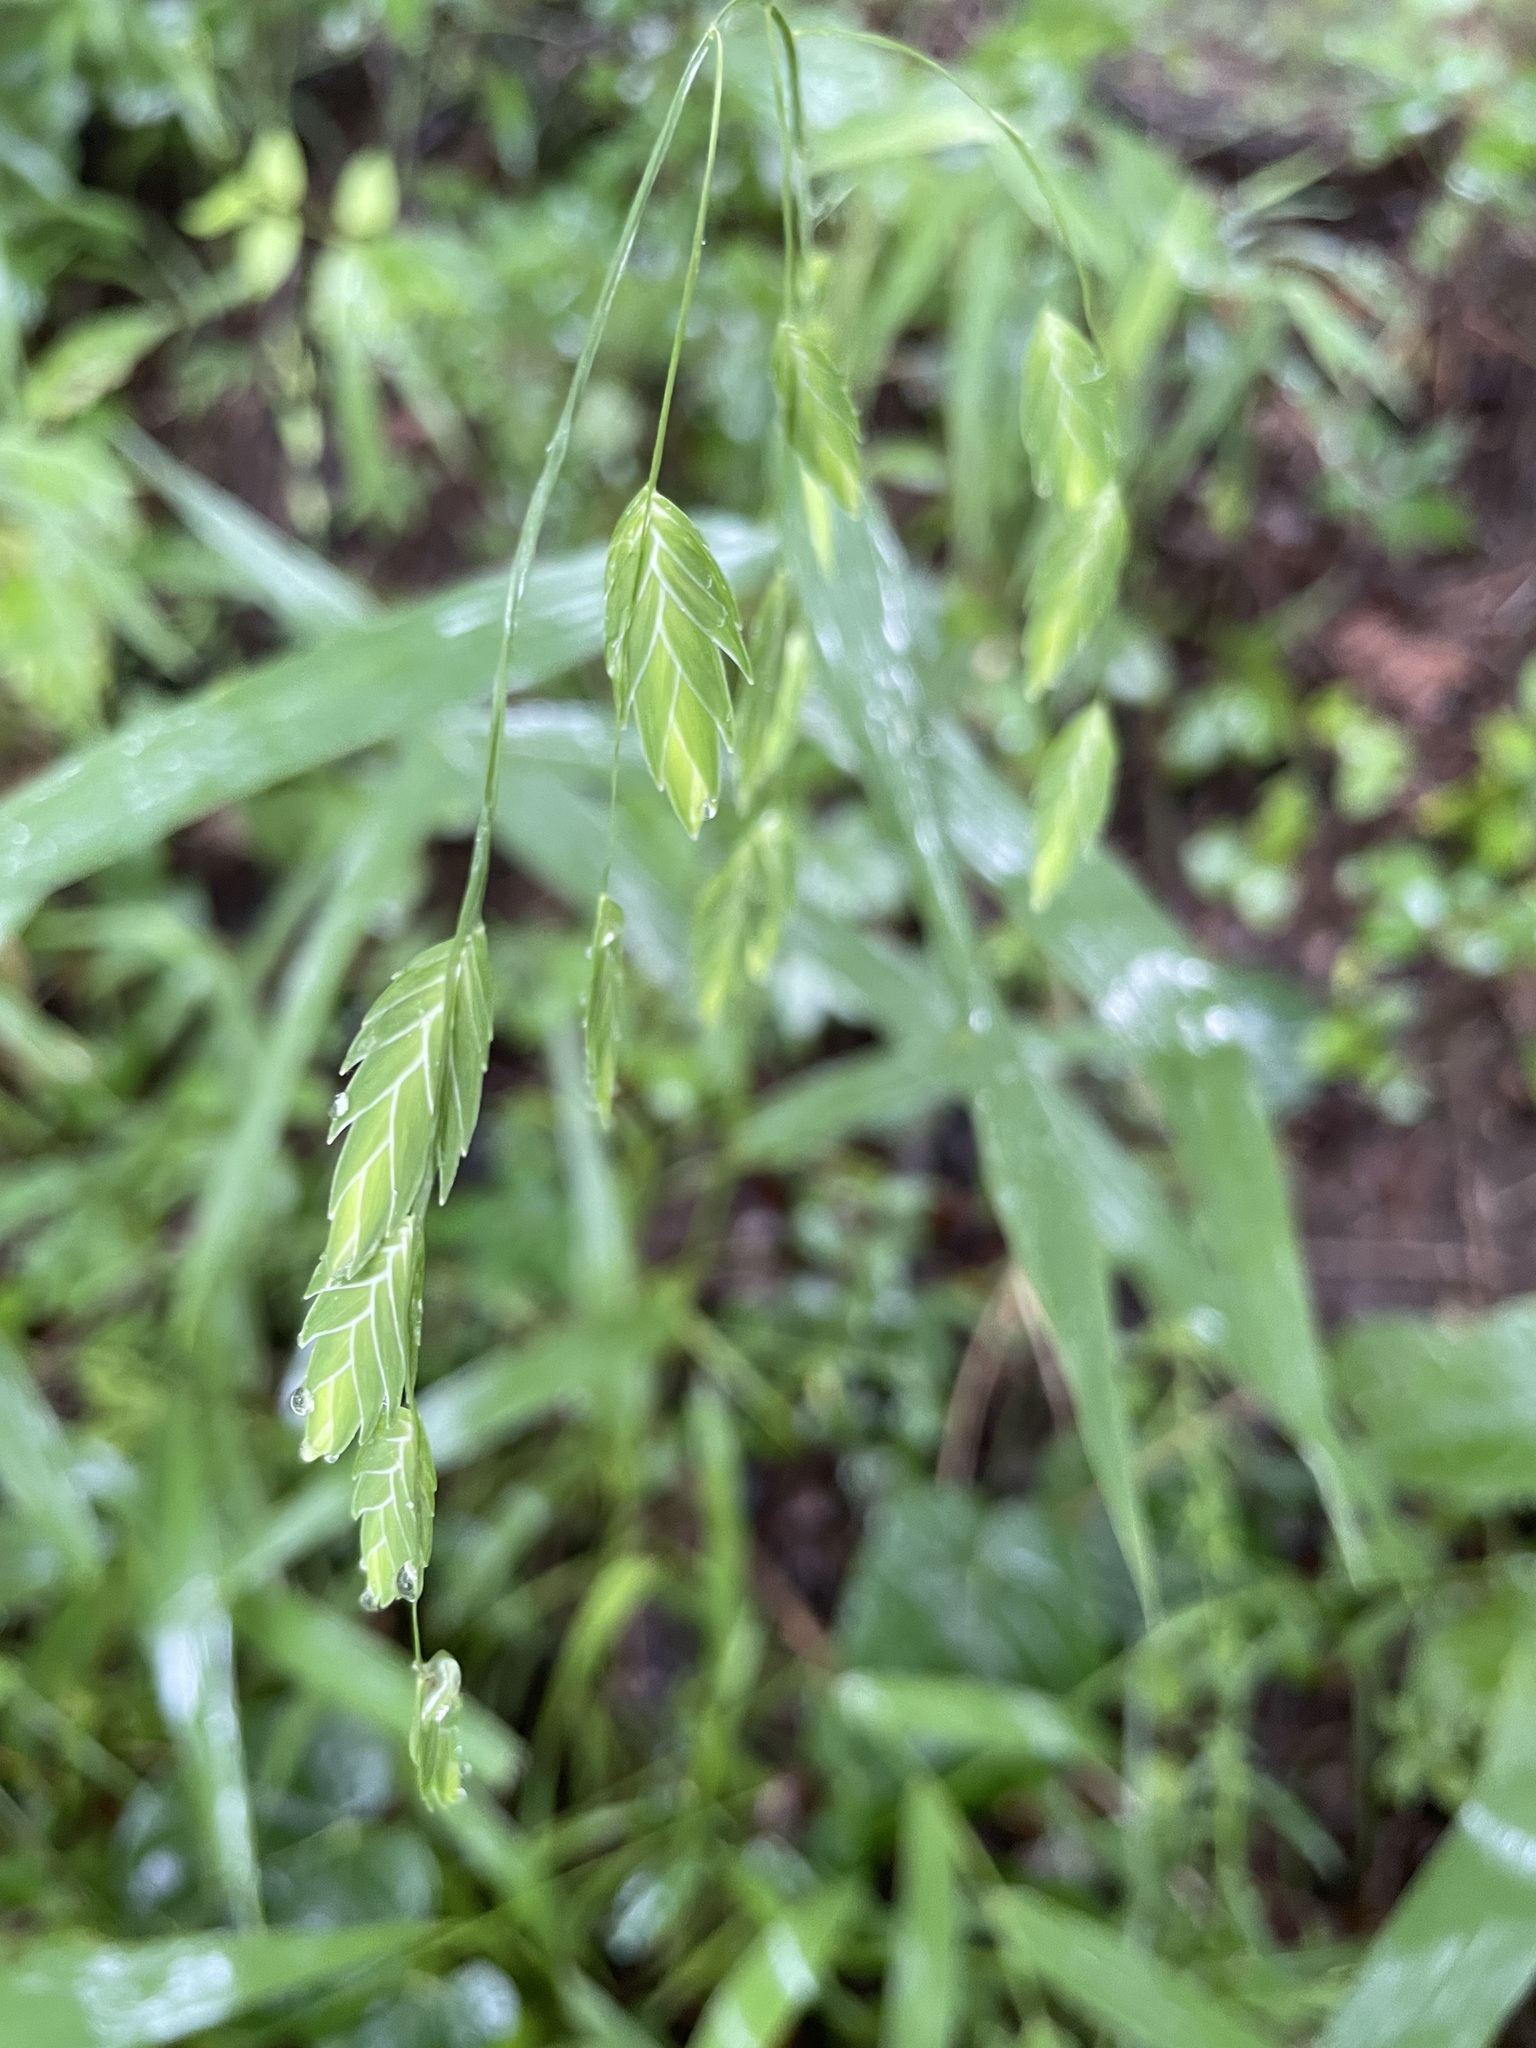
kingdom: Plantae
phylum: Tracheophyta
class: Liliopsida
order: Poales
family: Poaceae
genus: Chasmanthium
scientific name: Chasmanthium latifolium
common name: Broad-leaved chasmanthium
